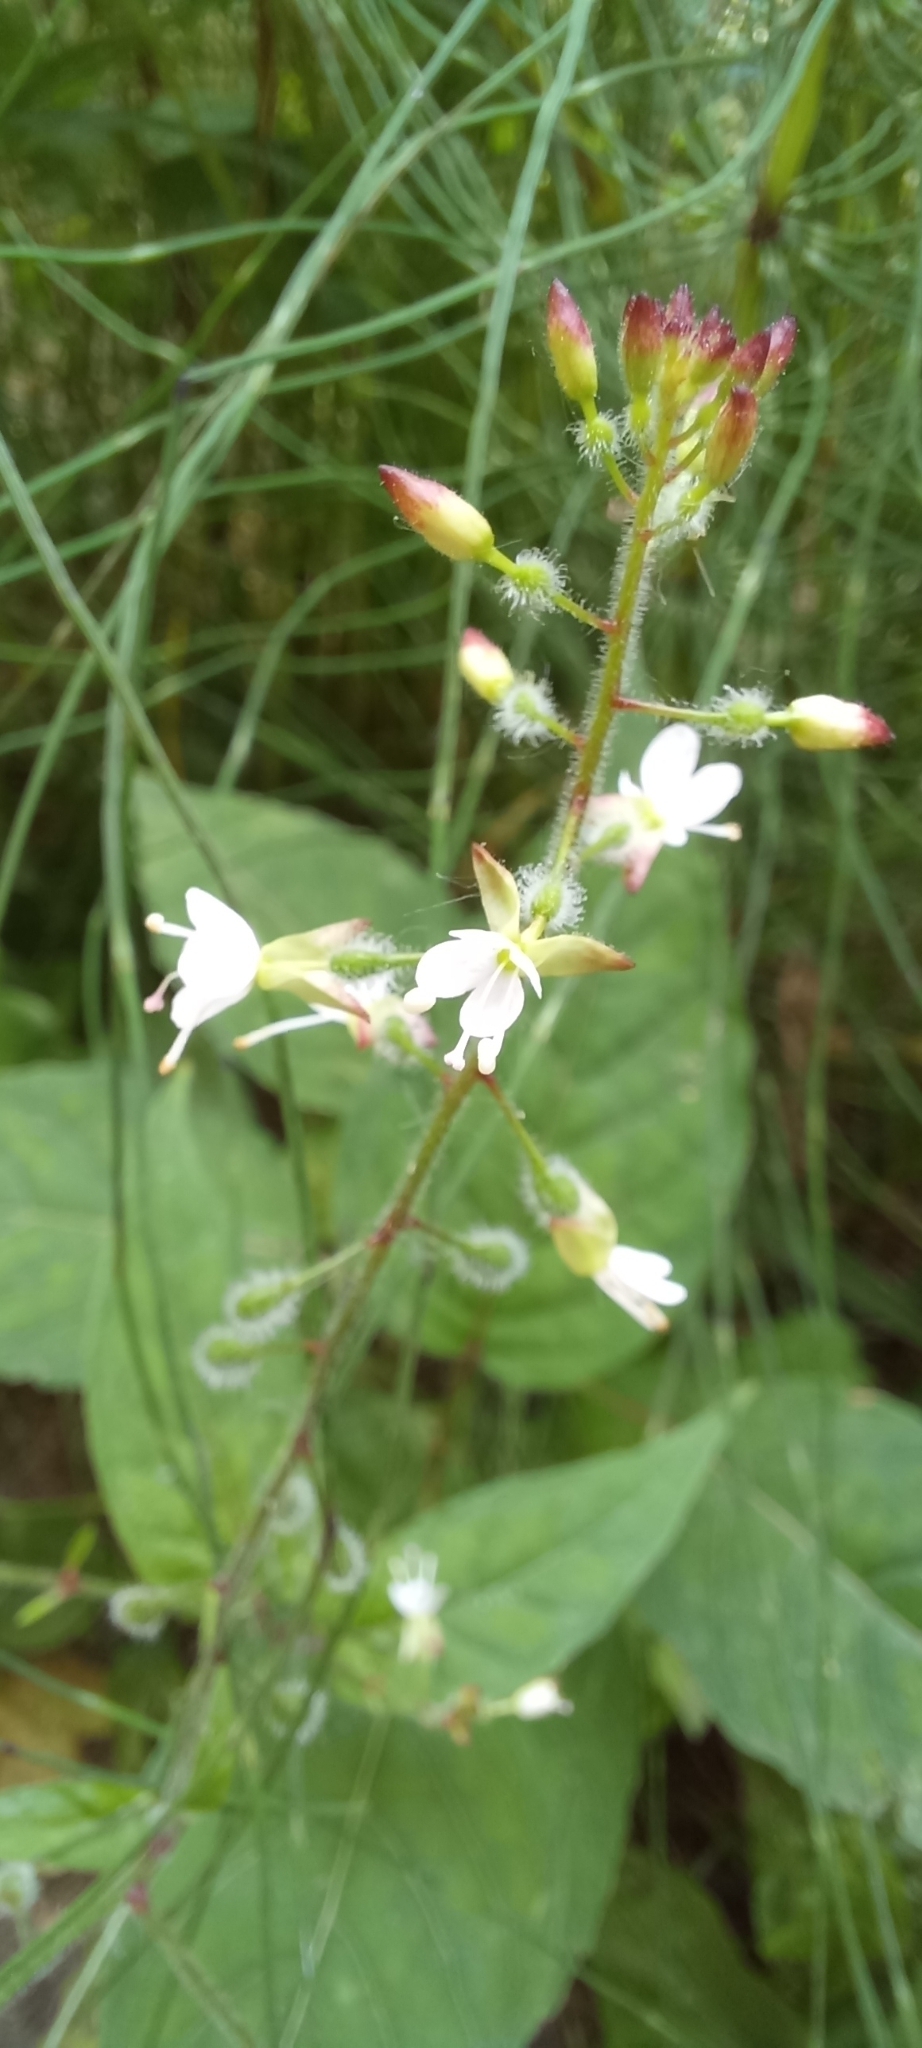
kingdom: Plantae
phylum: Tracheophyta
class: Magnoliopsida
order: Myrtales
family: Onagraceae
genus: Circaea
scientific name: Circaea lutetiana
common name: Enchanter's-nightshade
